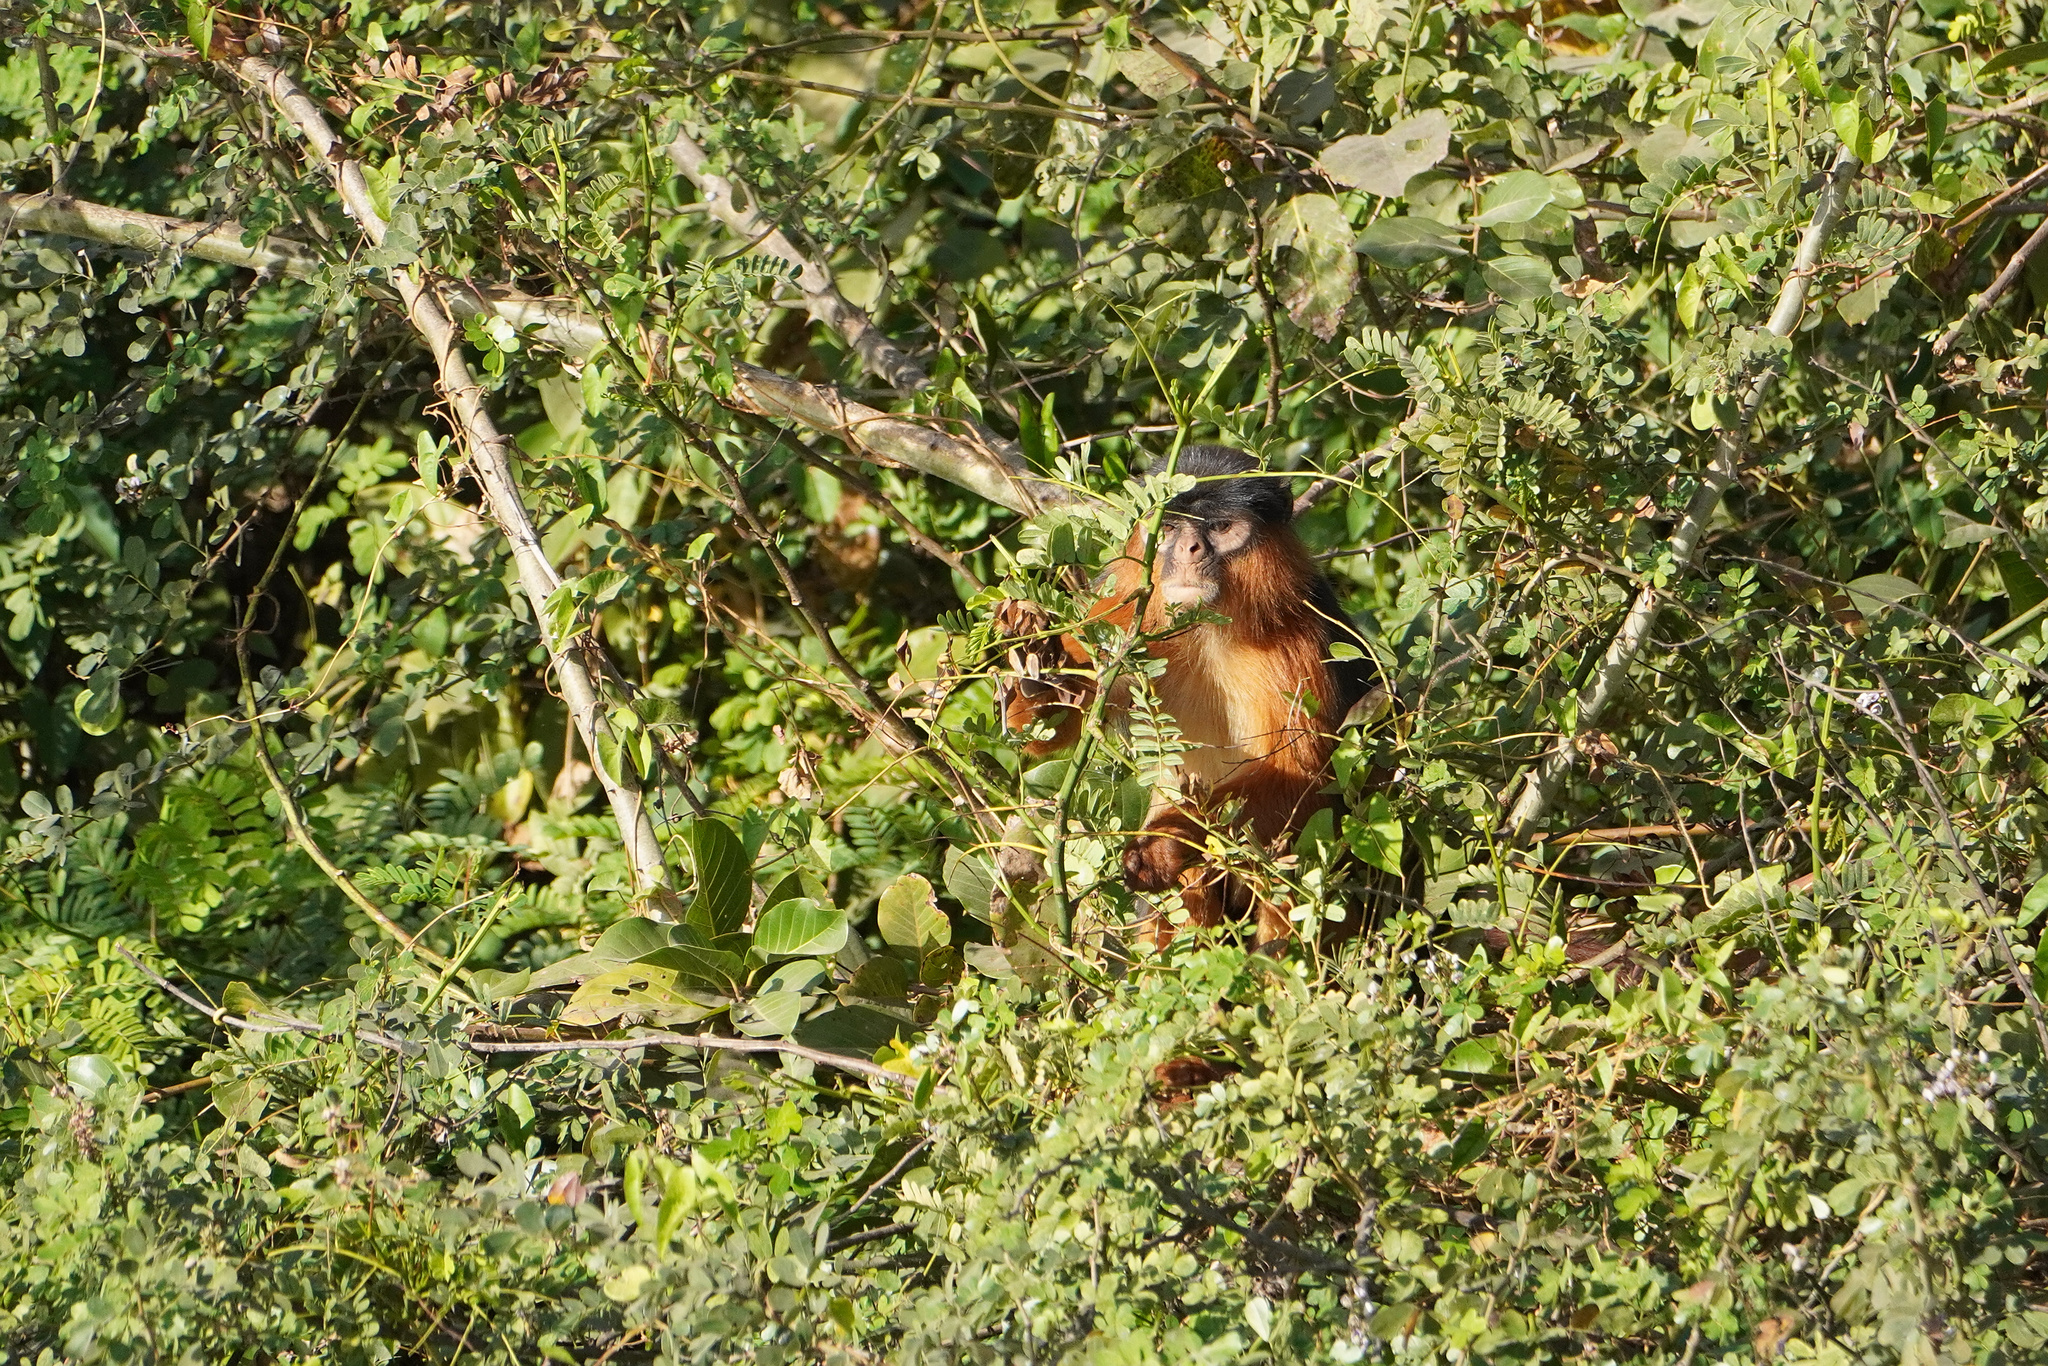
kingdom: Animalia
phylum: Chordata
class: Mammalia
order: Primates
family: Cercopithecidae
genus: Piliocolobus
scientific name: Piliocolobus badius
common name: Western red colobus
